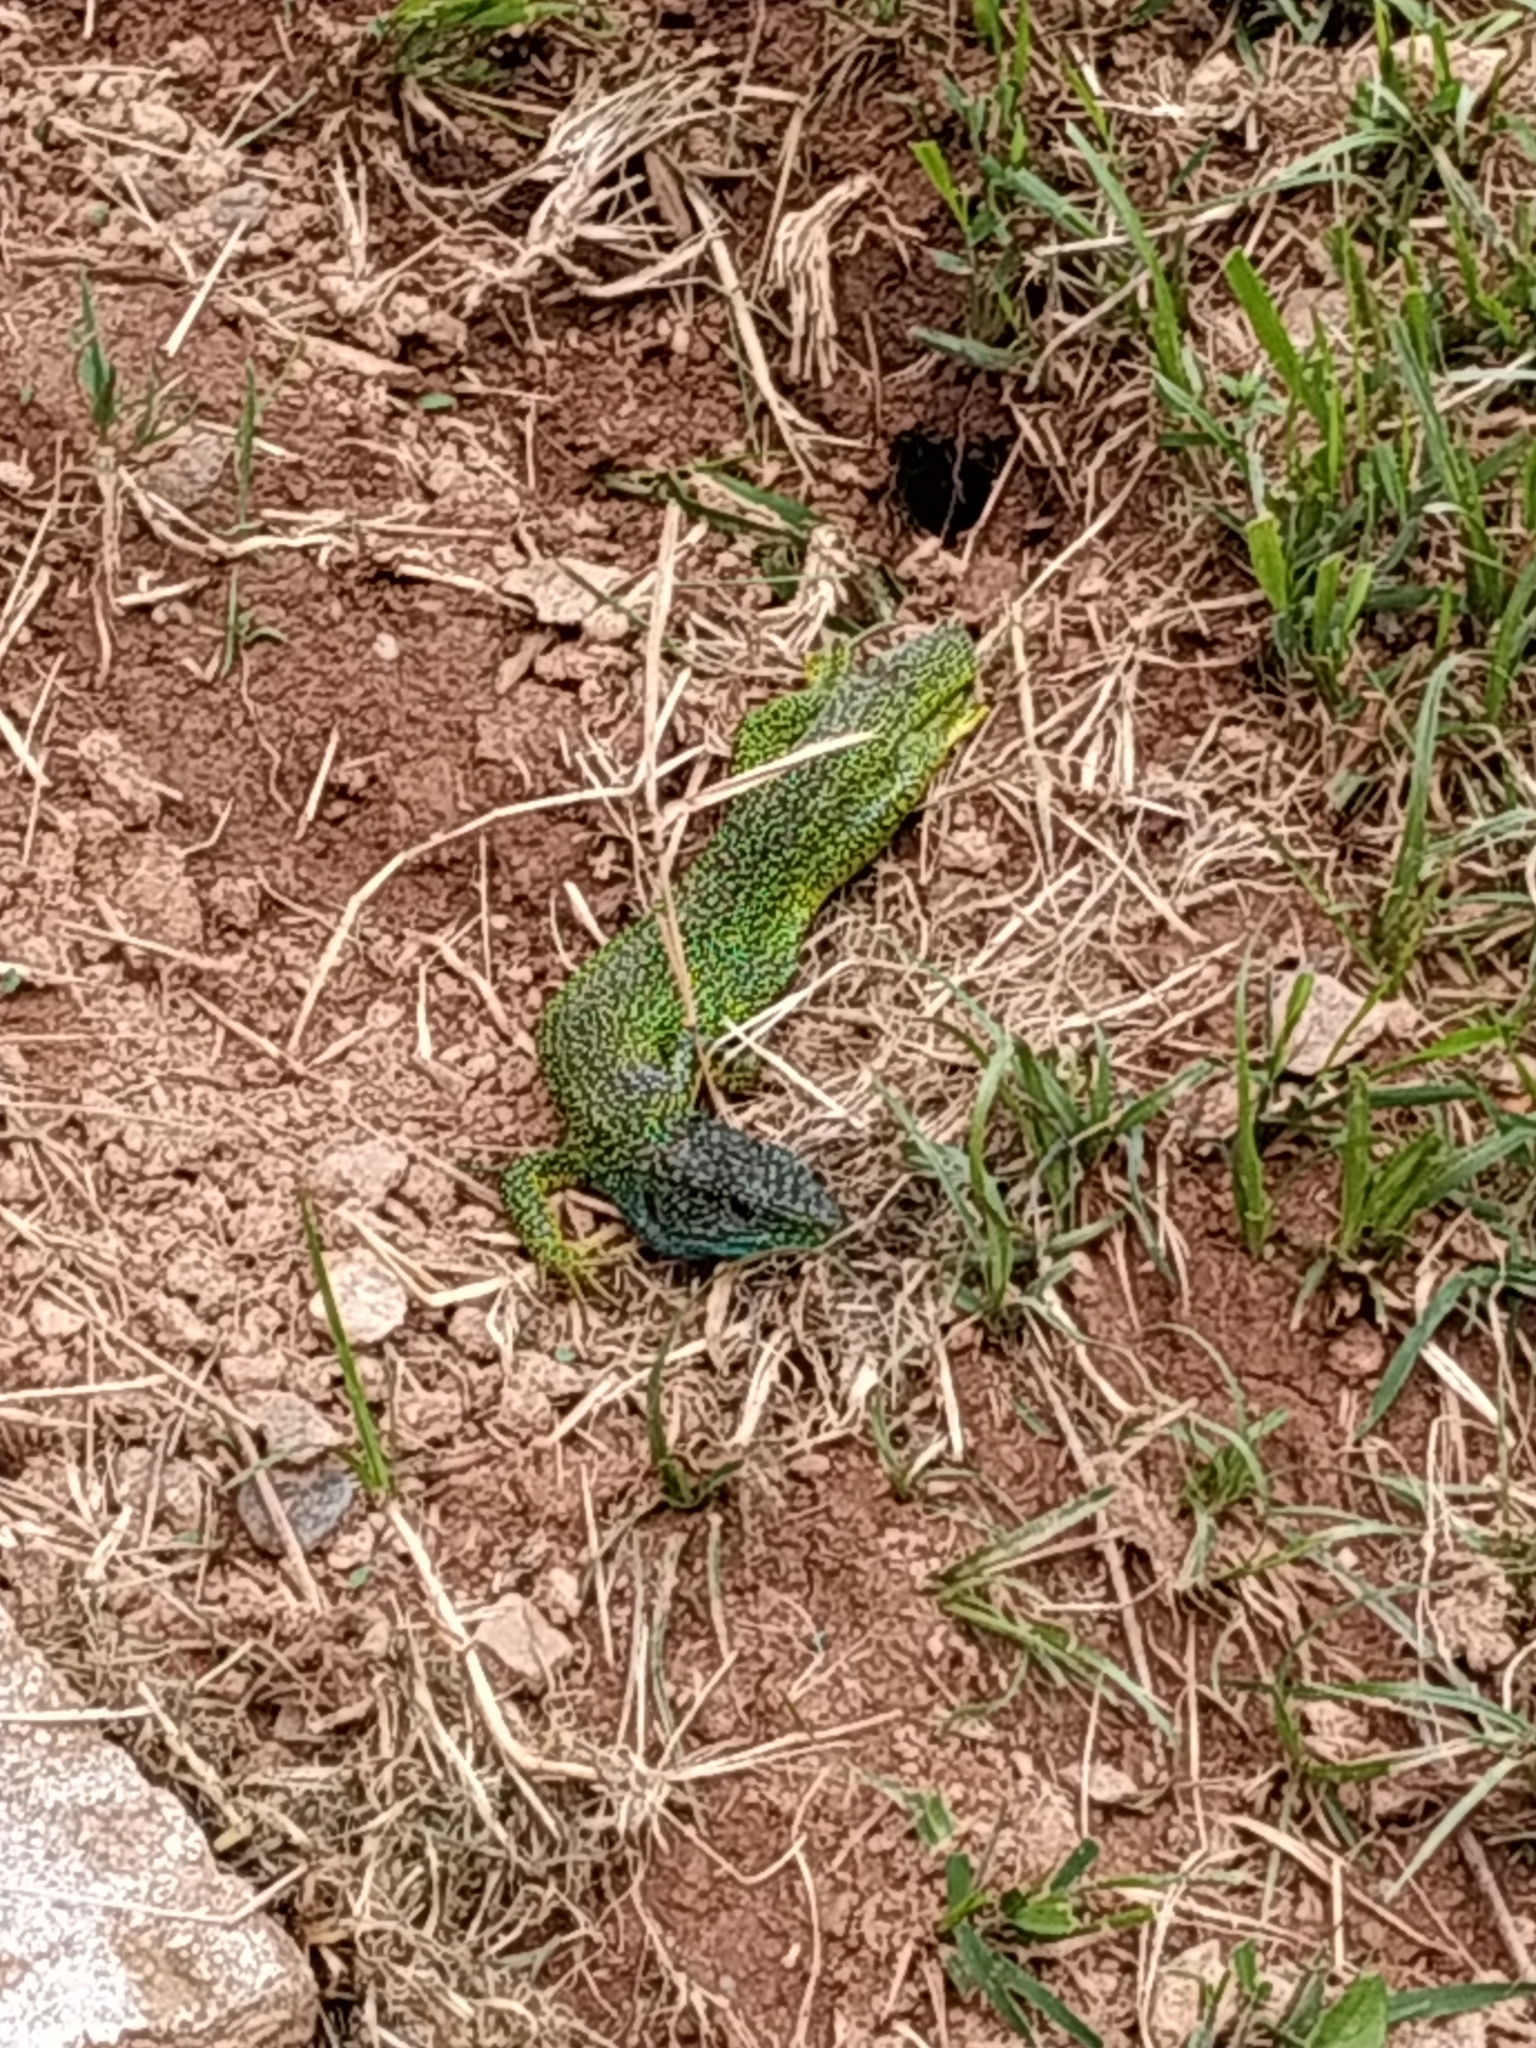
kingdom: Animalia
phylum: Chordata
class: Squamata
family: Lacertidae
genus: Lacerta
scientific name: Lacerta bilineata
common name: Western green lizard
